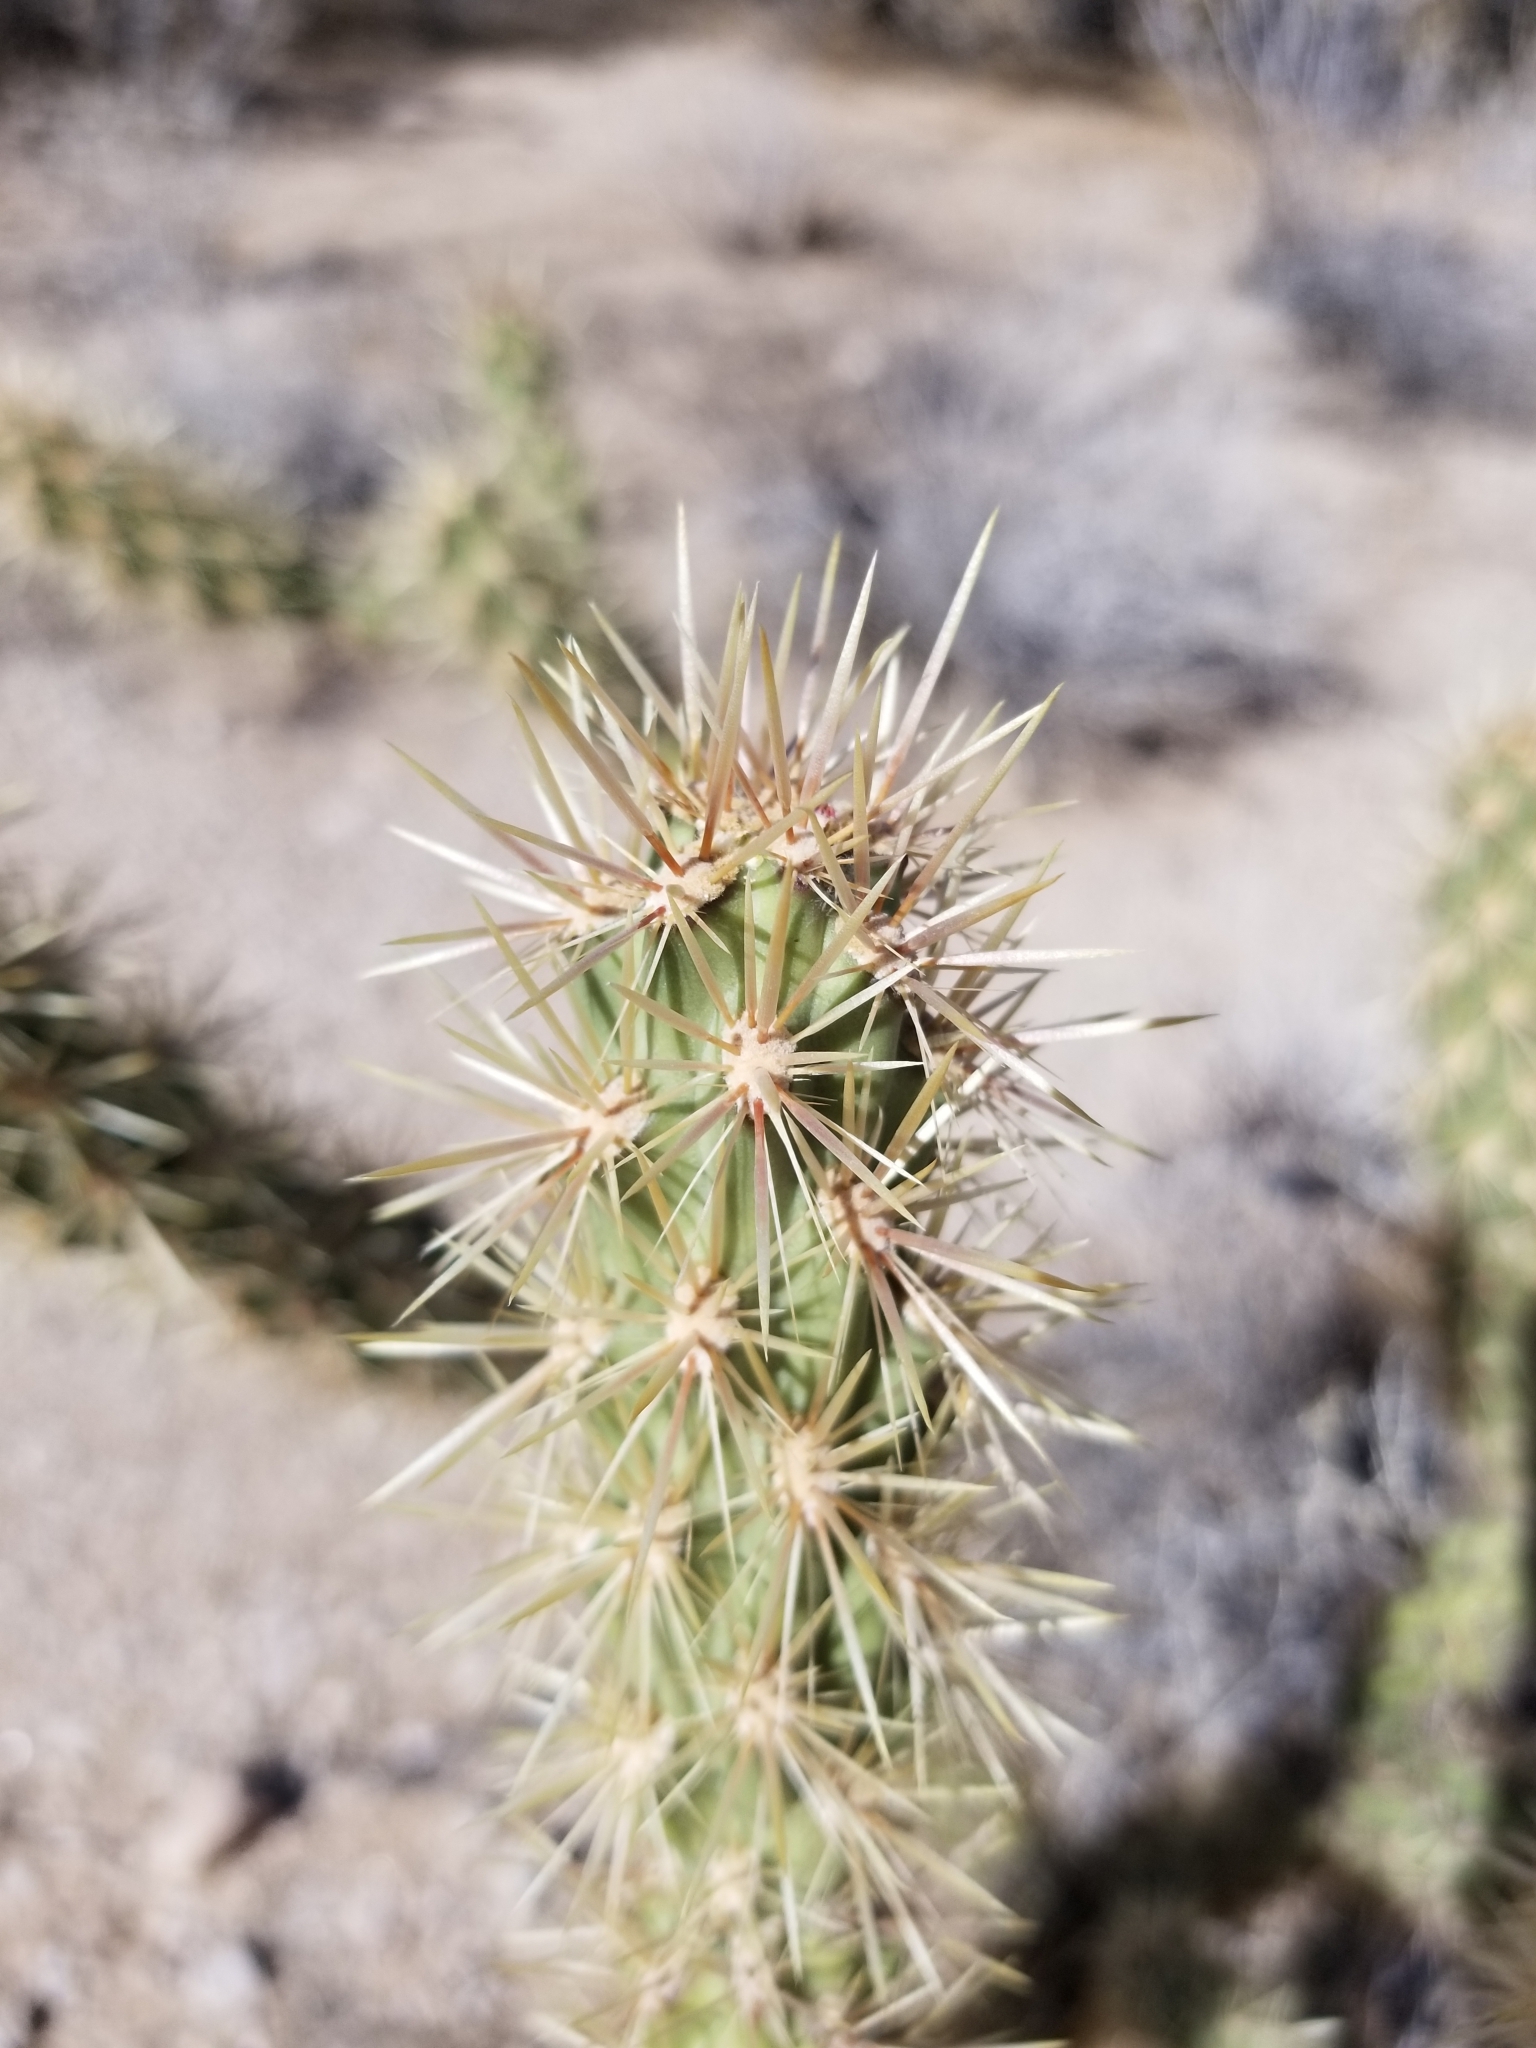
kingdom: Plantae
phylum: Tracheophyta
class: Magnoliopsida
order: Caryophyllales
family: Cactaceae
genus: Cylindropuntia
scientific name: Cylindropuntia acanthocarpa
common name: Buckhorn cholla
